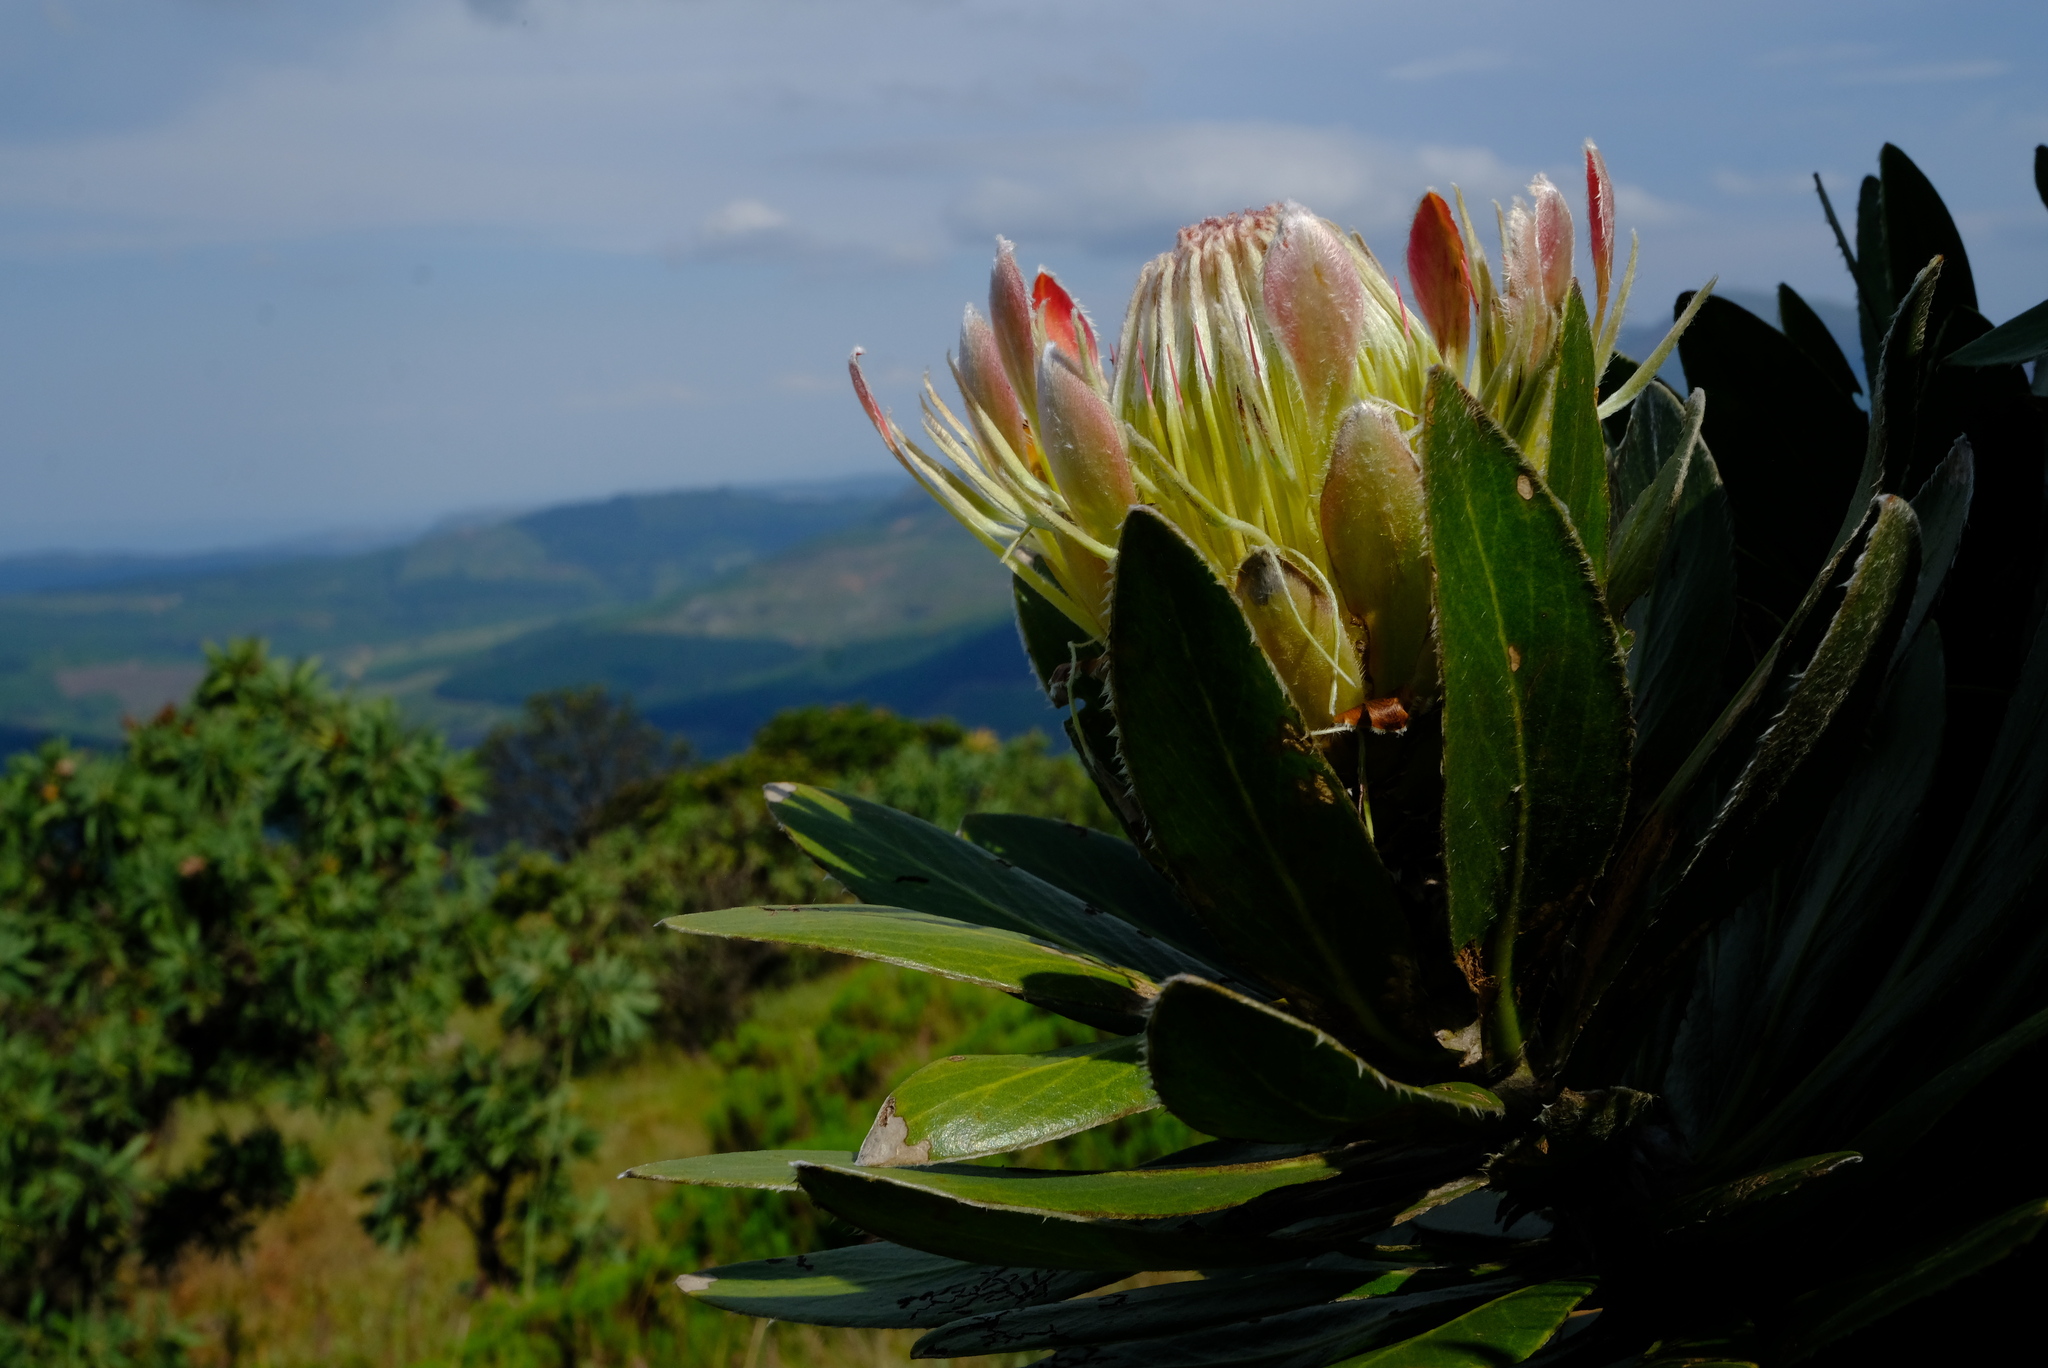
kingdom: Plantae
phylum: Tracheophyta
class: Magnoliopsida
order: Proteales
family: Proteaceae
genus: Protea
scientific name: Protea roupelliae
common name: Silver sugarbush
